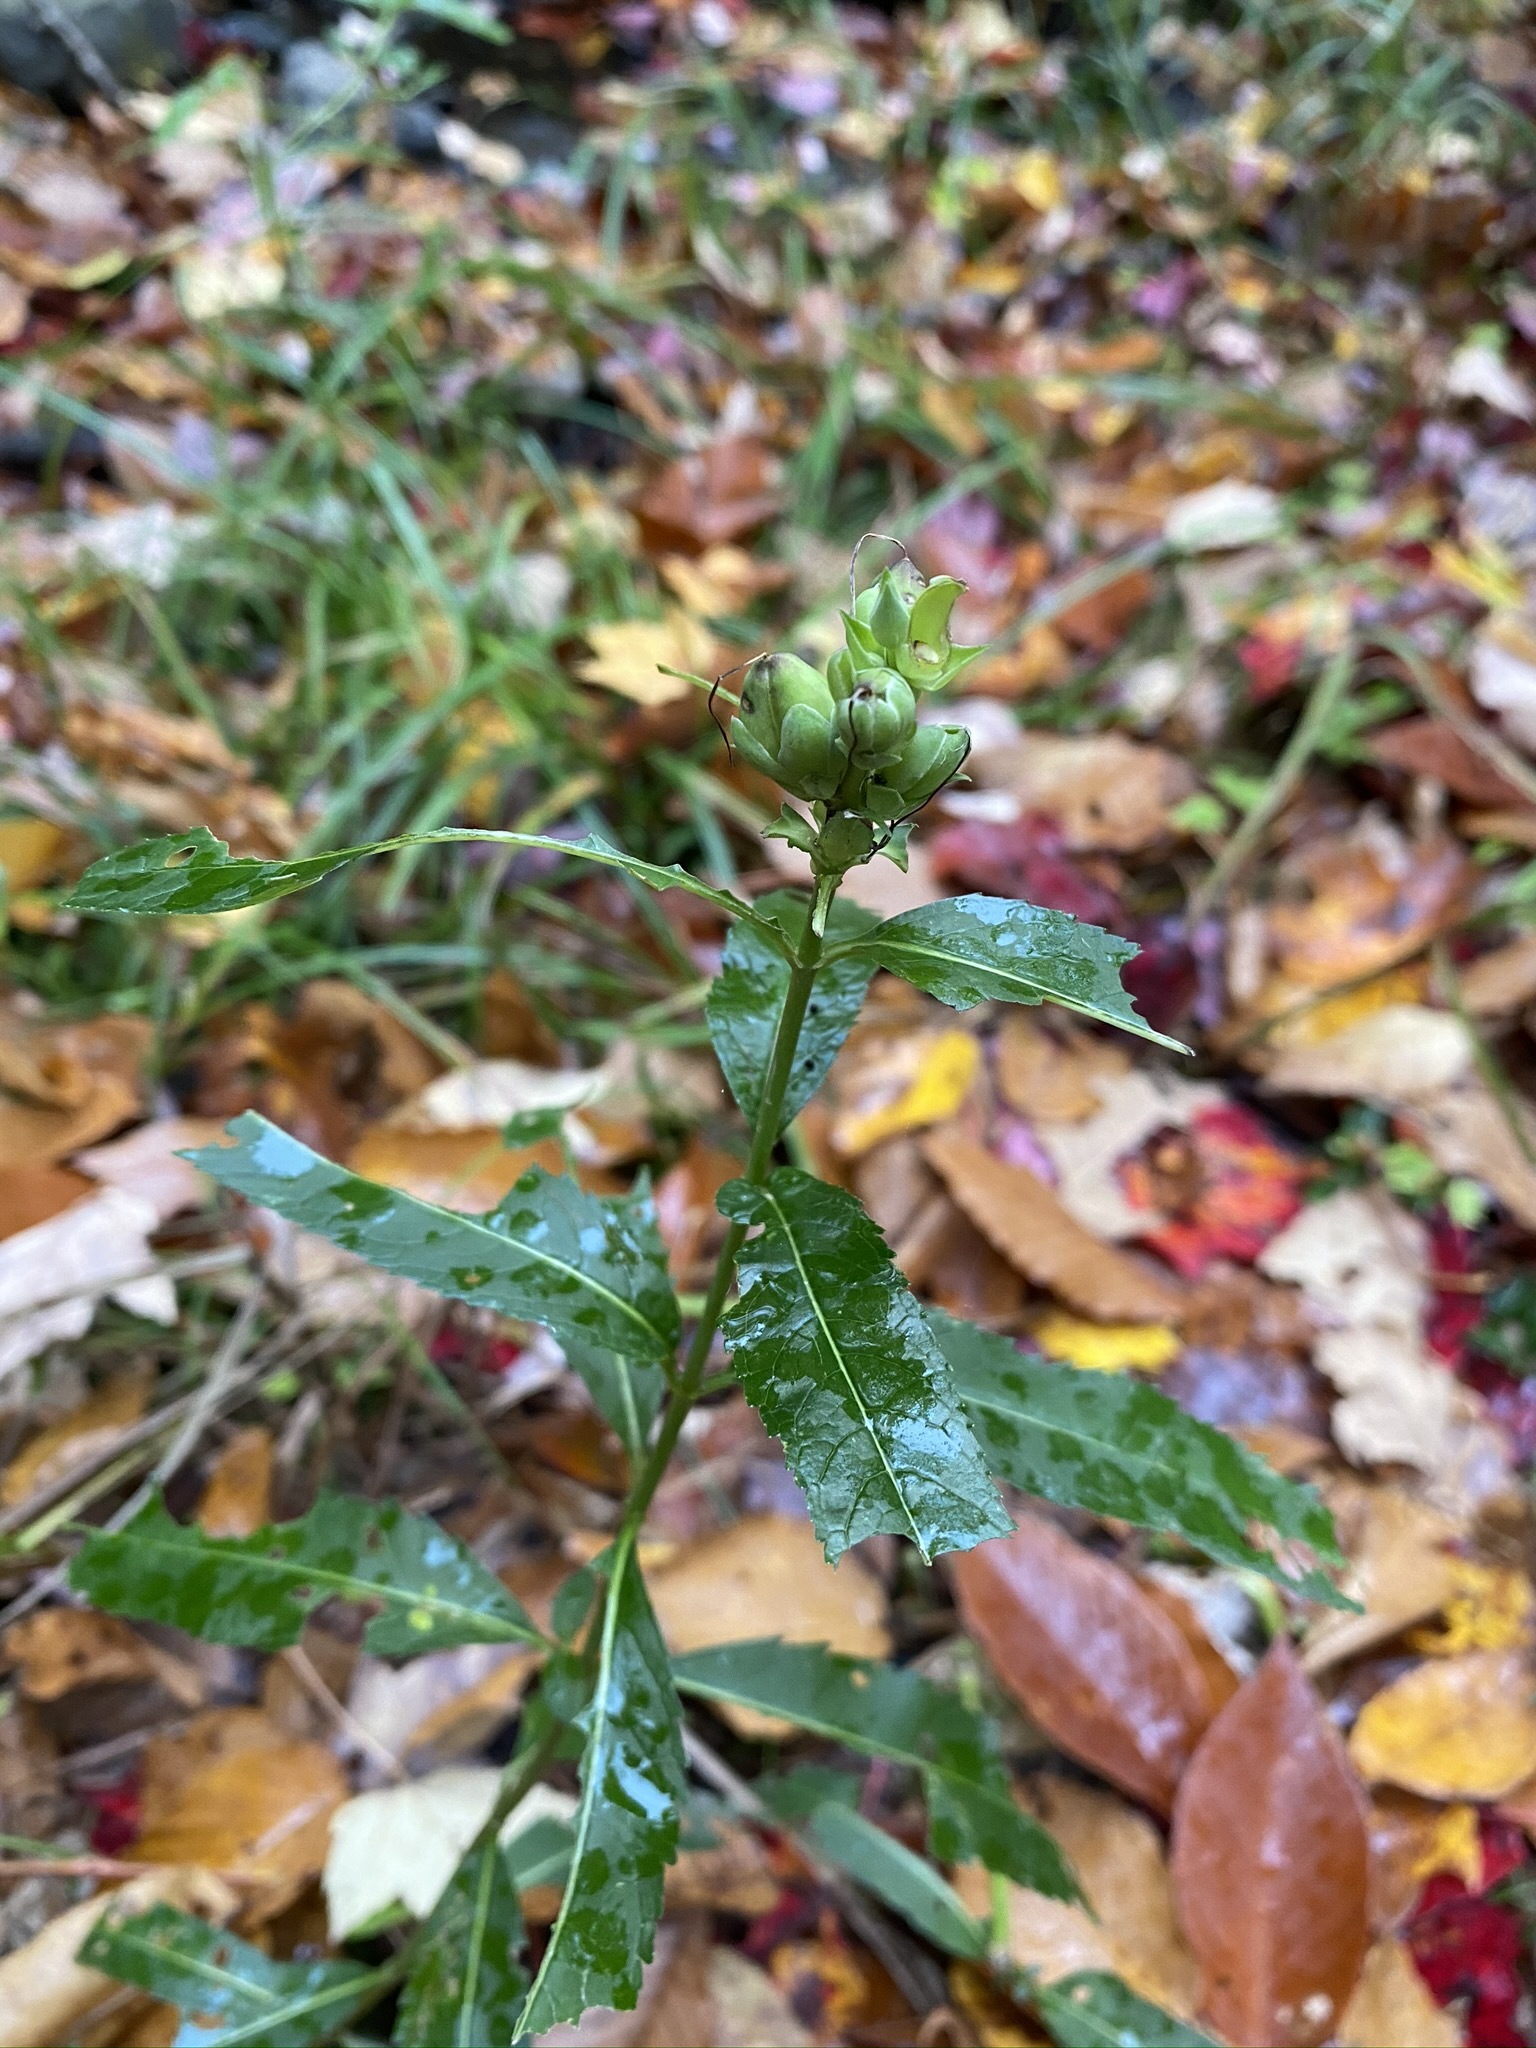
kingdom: Plantae
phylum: Tracheophyta
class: Magnoliopsida
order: Lamiales
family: Plantaginaceae
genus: Chelone
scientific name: Chelone glabra
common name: Snakehead
